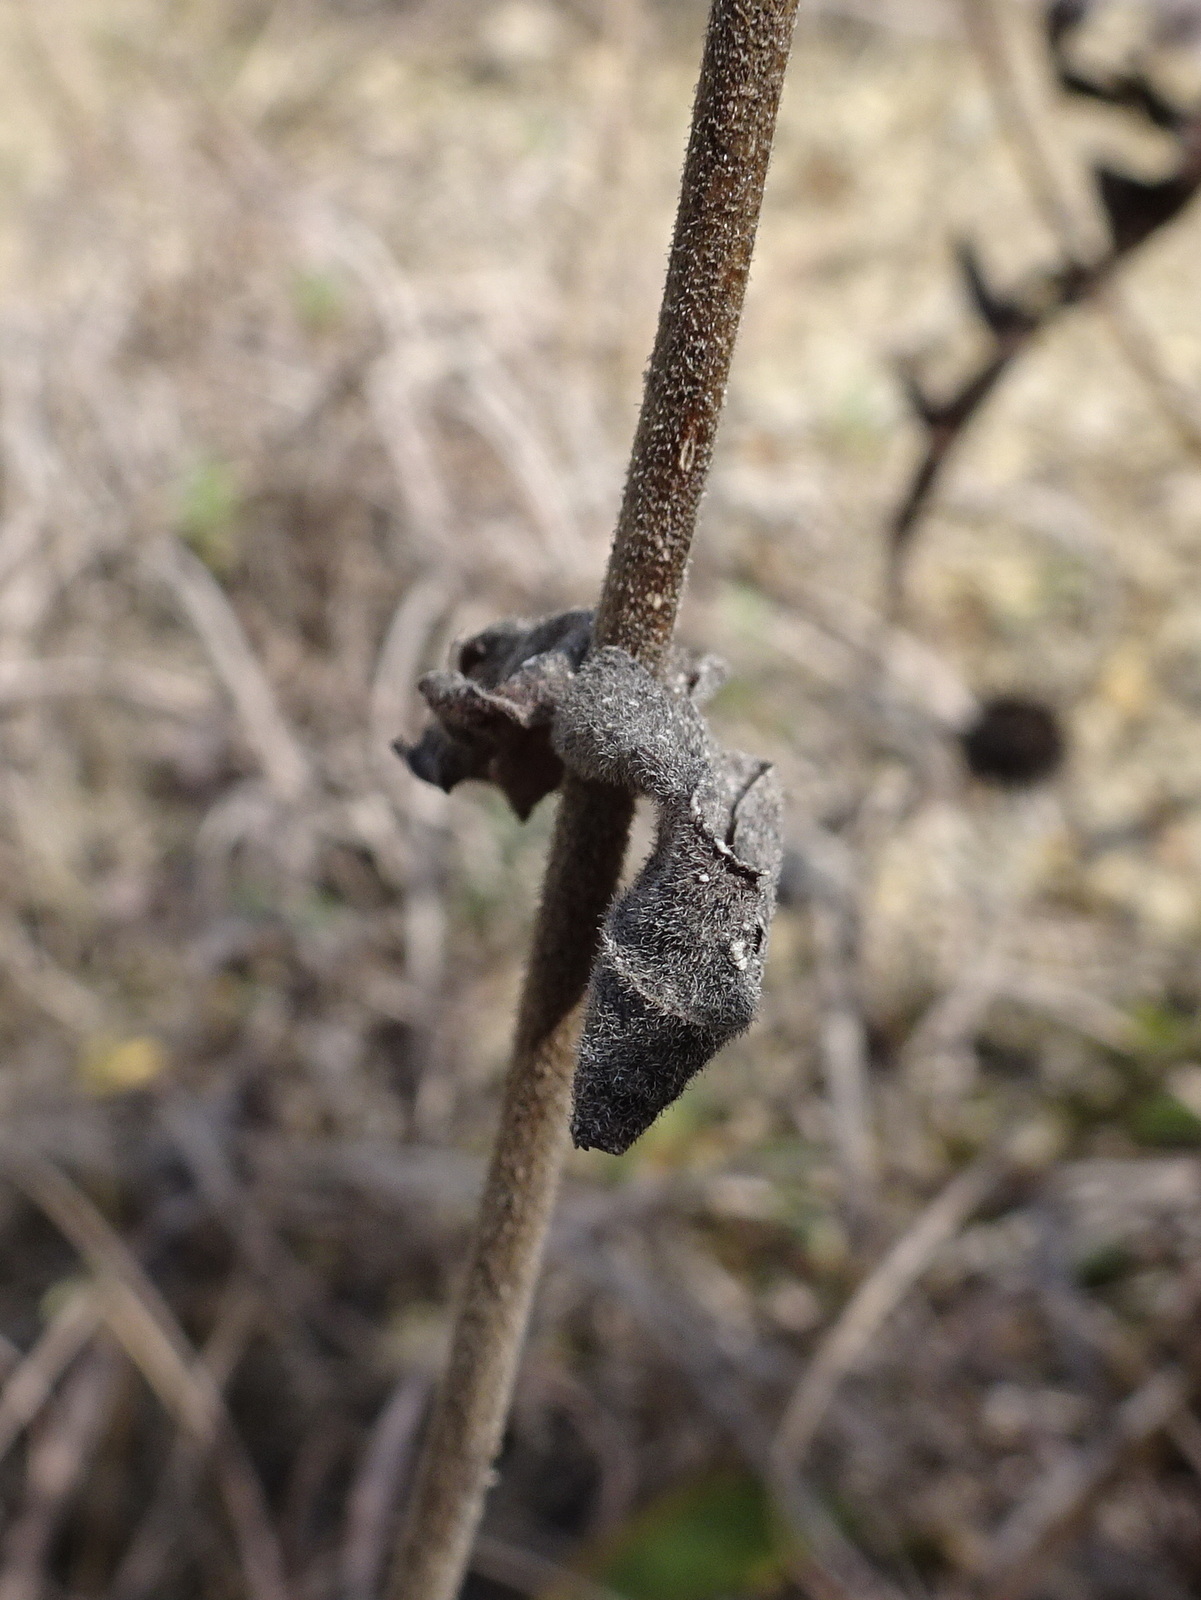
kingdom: Plantae
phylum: Tracheophyta
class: Magnoliopsida
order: Lamiales
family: Plantaginaceae
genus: Penstemon
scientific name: Penstemon cobaea
